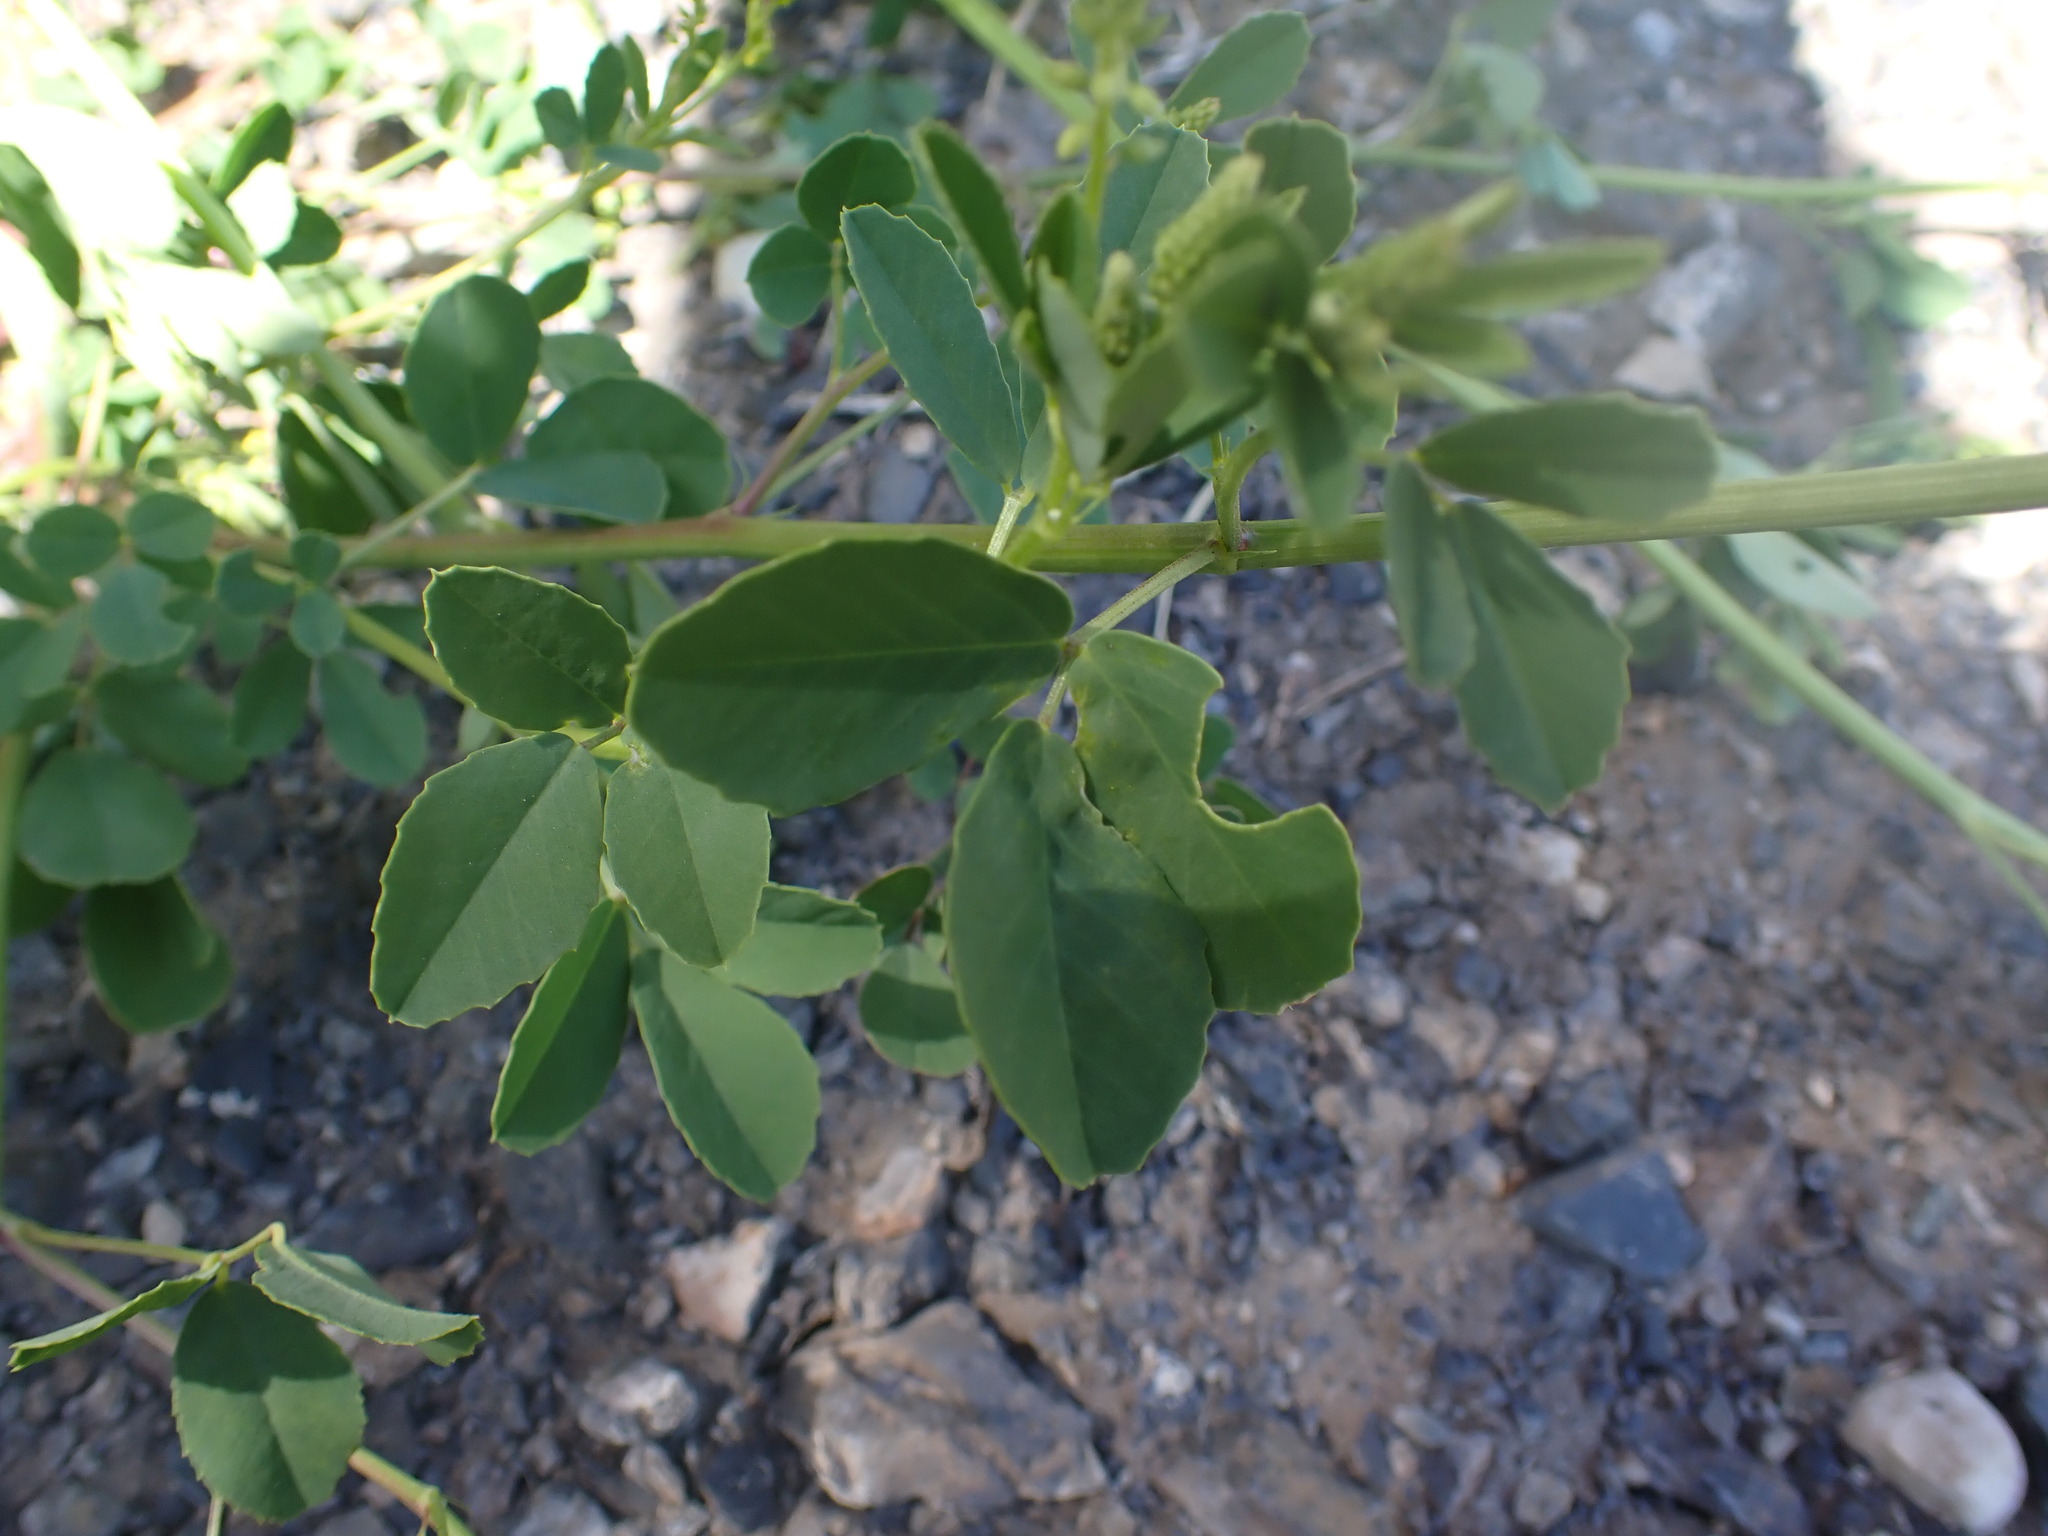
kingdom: Plantae
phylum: Tracheophyta
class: Magnoliopsida
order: Fabales
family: Fabaceae
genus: Melilotus
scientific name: Melilotus officinalis
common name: Sweetclover
